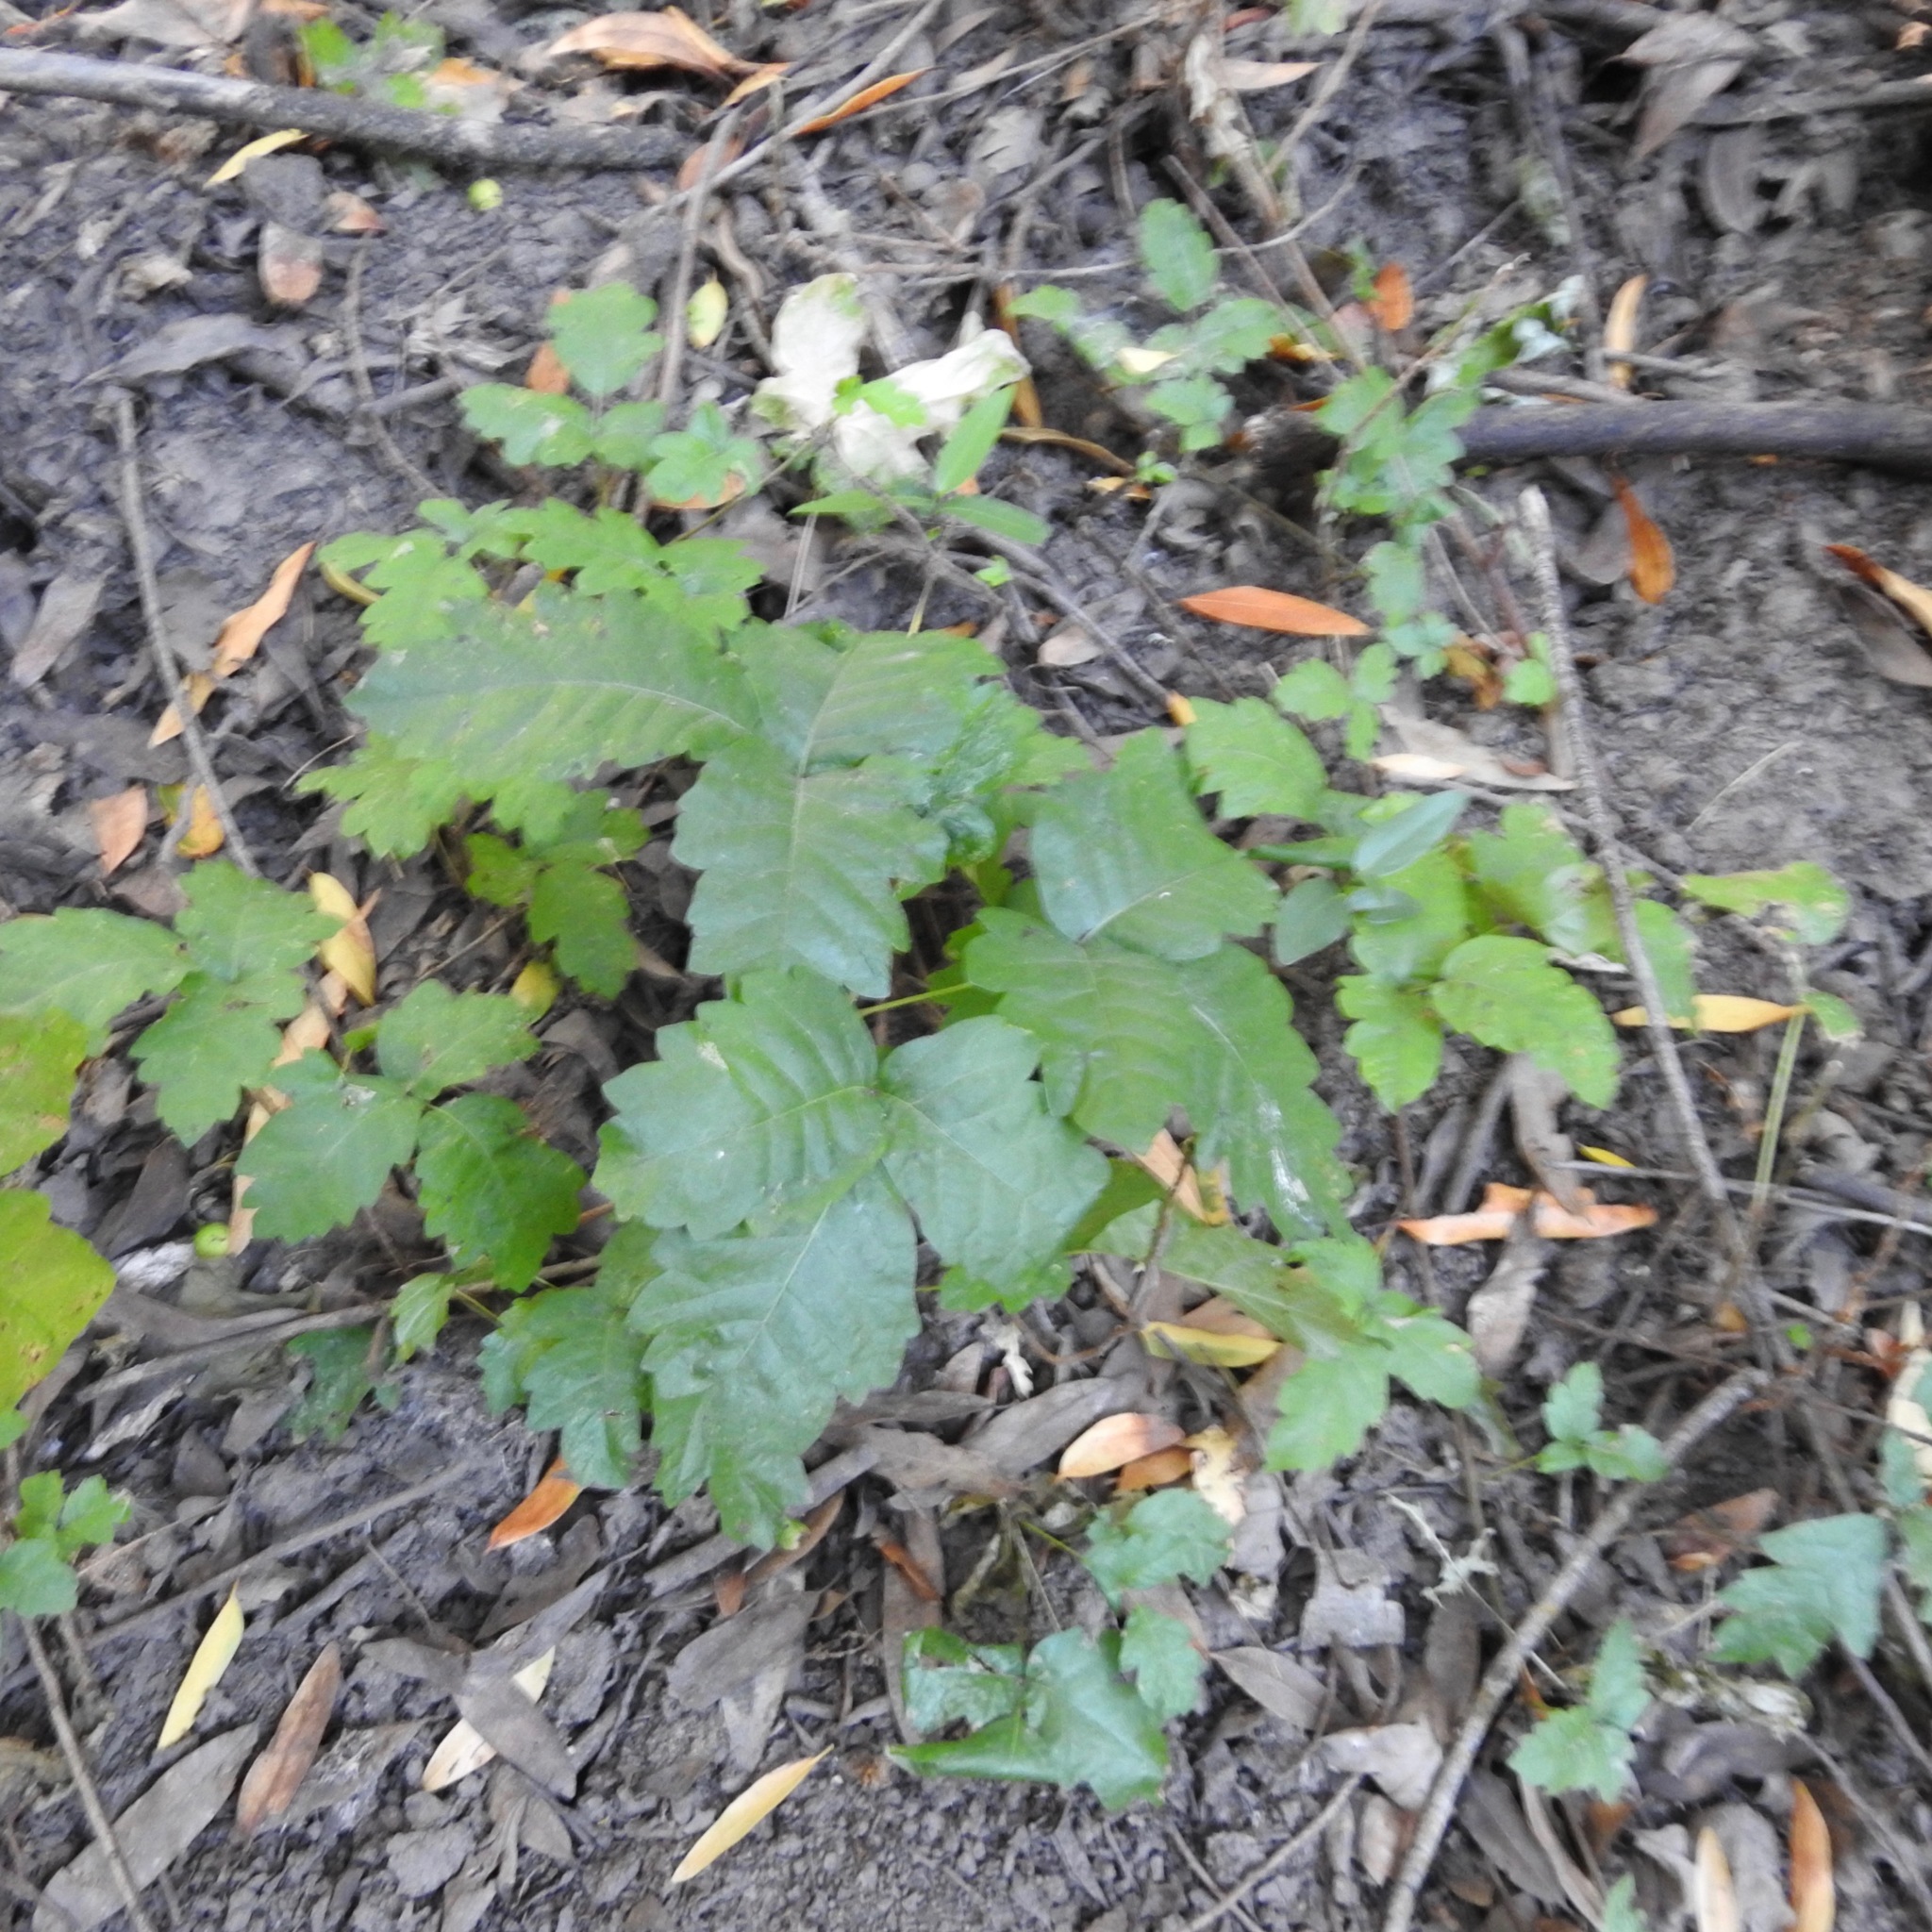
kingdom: Plantae
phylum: Tracheophyta
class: Magnoliopsida
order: Sapindales
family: Anacardiaceae
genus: Toxicodendron
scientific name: Toxicodendron diversilobum
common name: Pacific poison-oak
